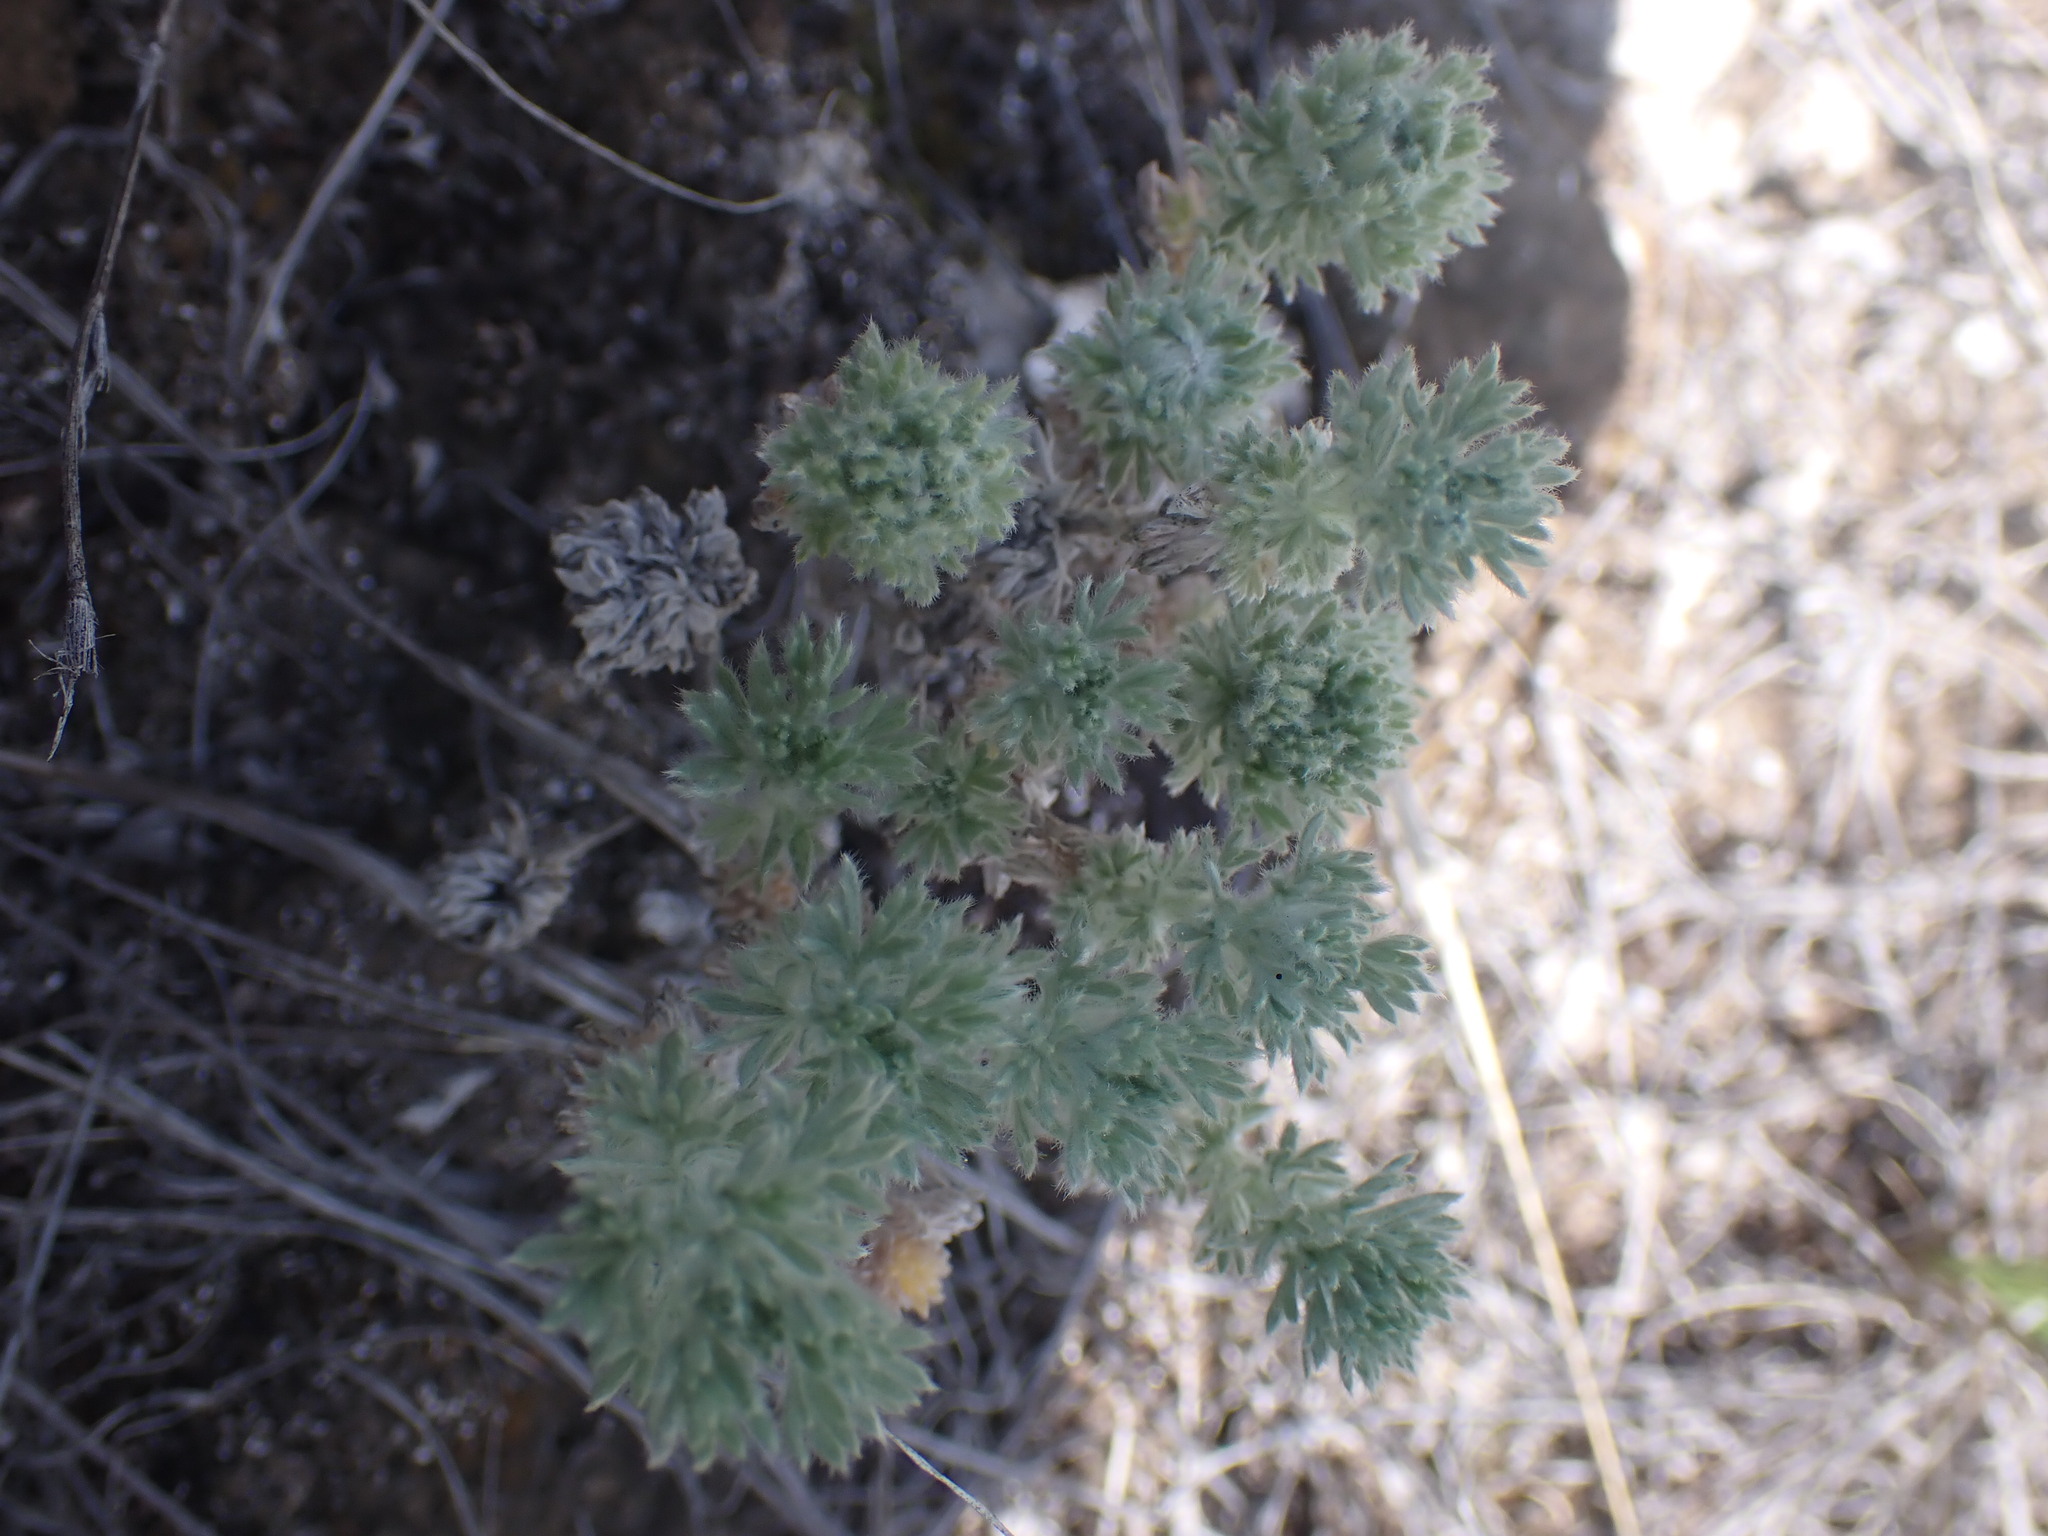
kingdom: Plantae
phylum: Tracheophyta
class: Magnoliopsida
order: Asterales
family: Asteraceae
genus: Artemisia
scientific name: Artemisia frigida
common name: Prairie sagewort
